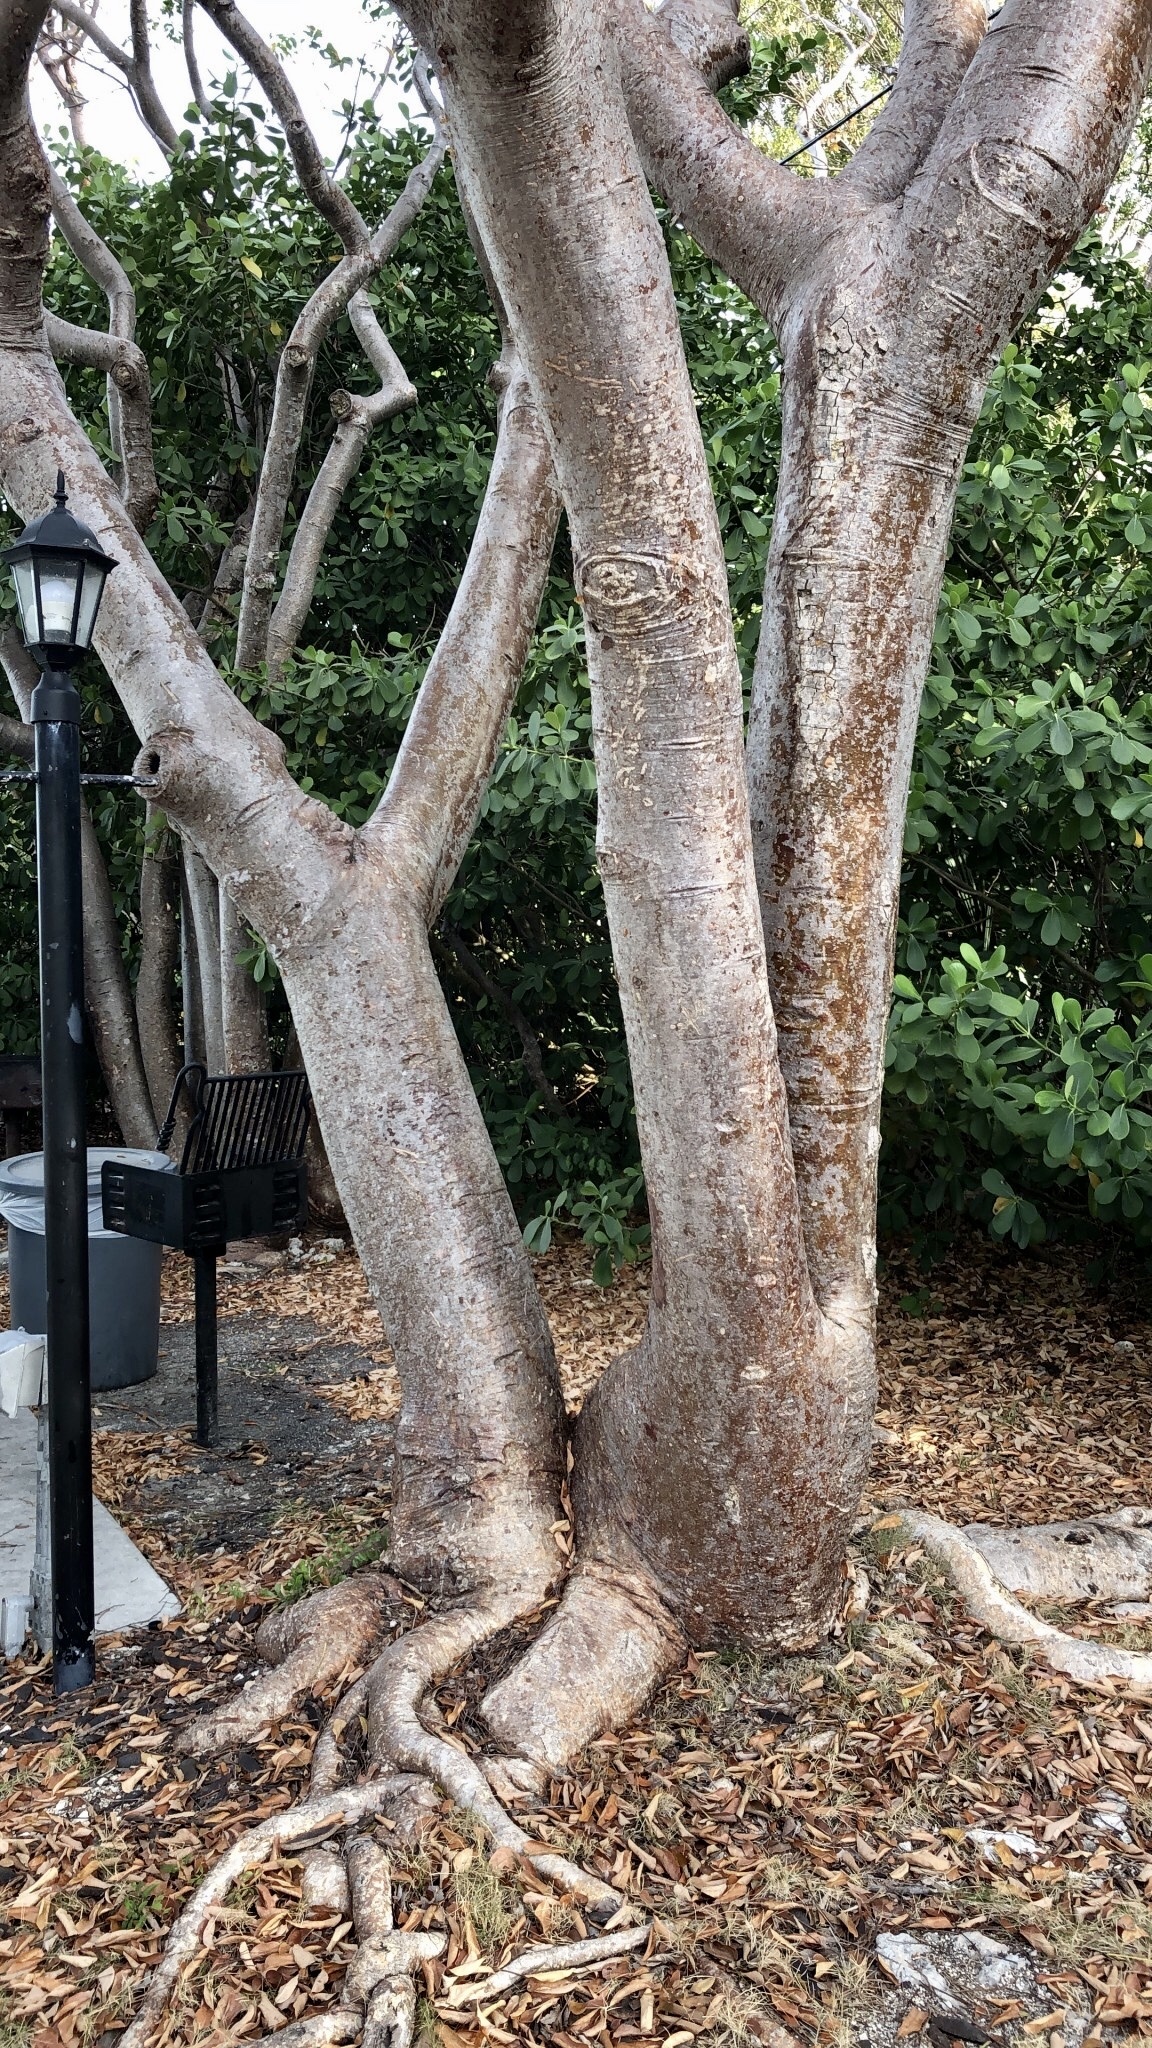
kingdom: Plantae
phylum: Tracheophyta
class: Magnoliopsida
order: Sapindales
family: Burseraceae
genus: Bursera
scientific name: Bursera simaruba
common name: Turpentine tree
